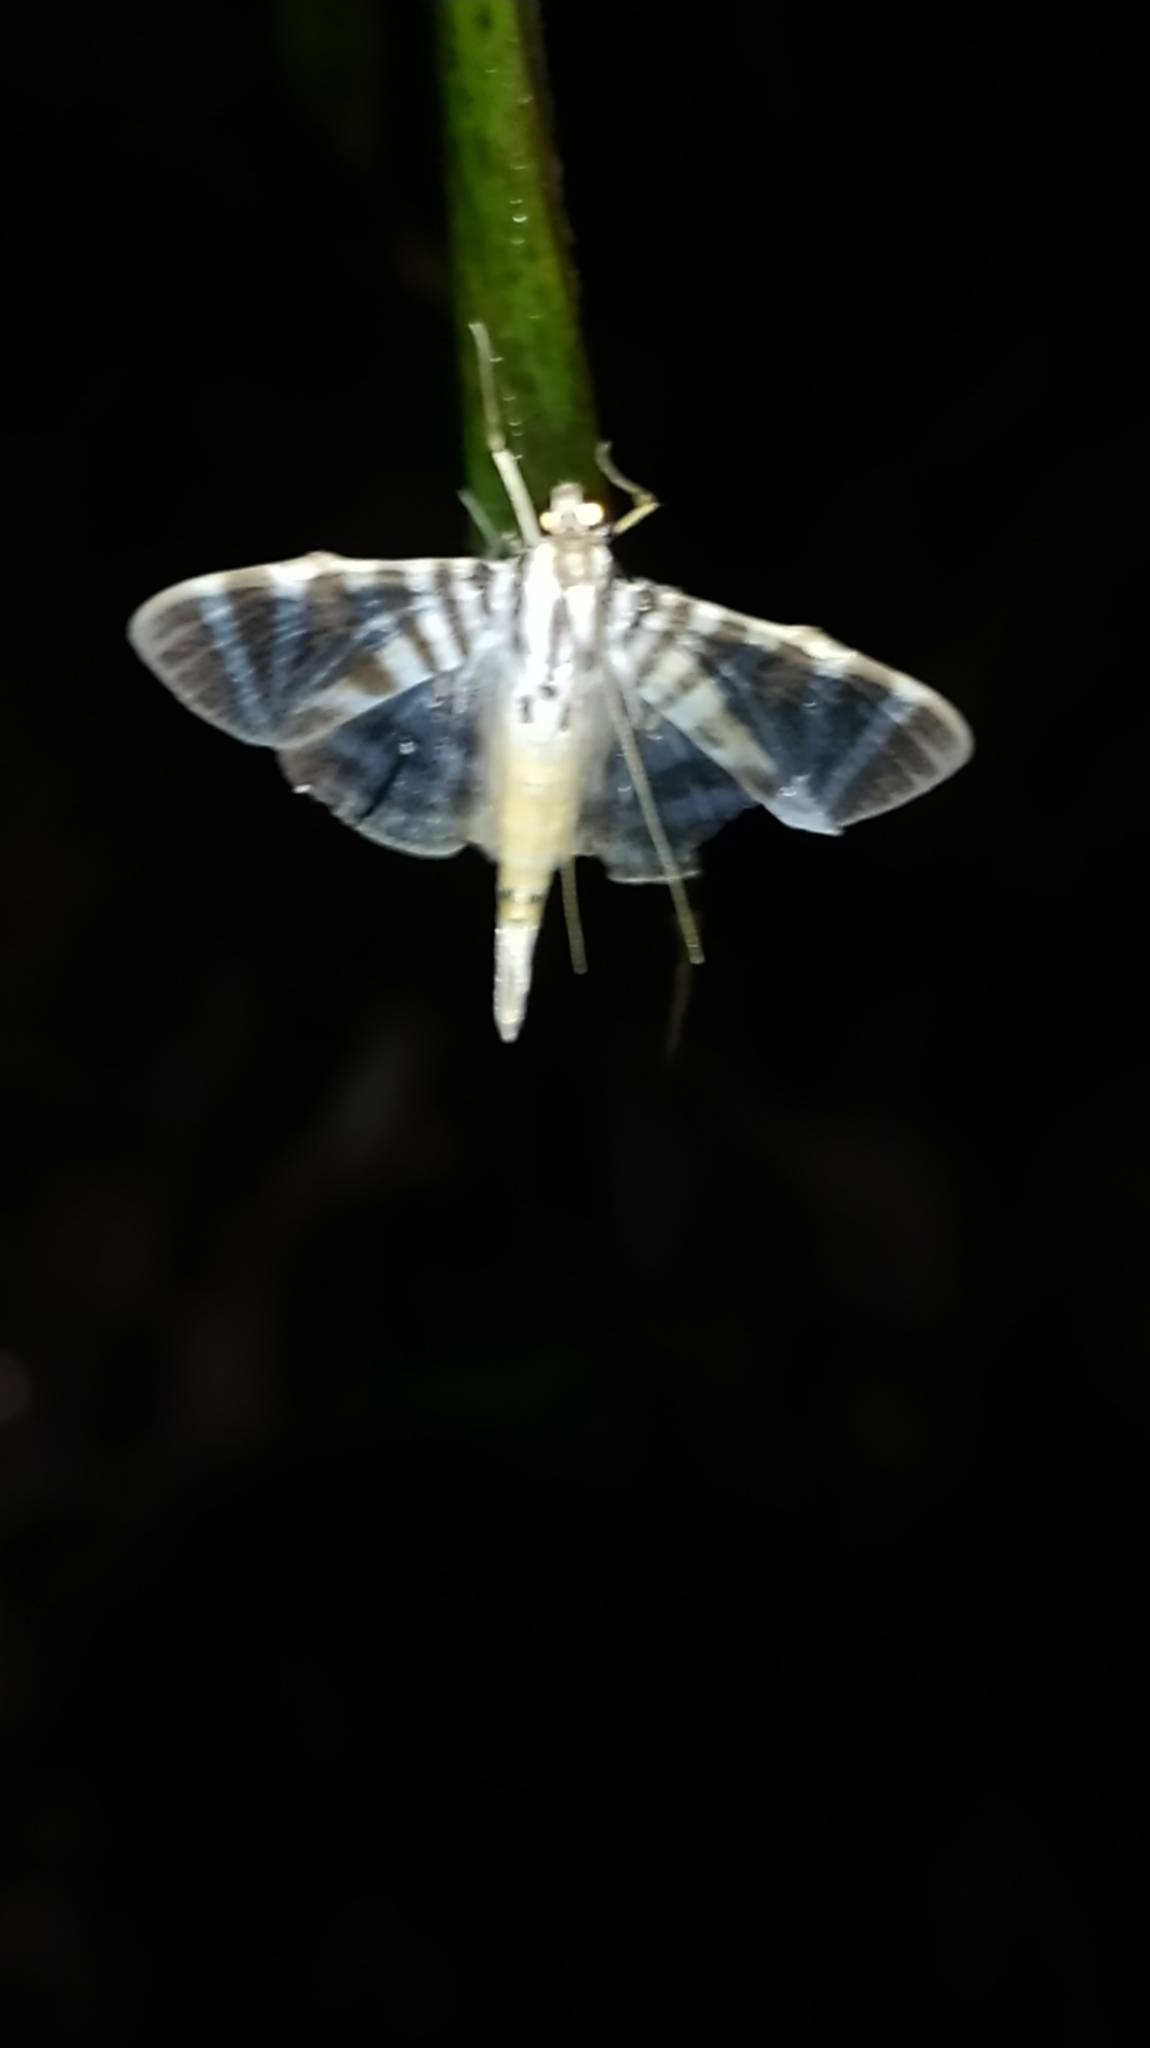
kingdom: Animalia
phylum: Arthropoda
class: Insecta
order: Lepidoptera
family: Crambidae
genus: Zebronia
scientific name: Zebronia Spilomela perspicata
